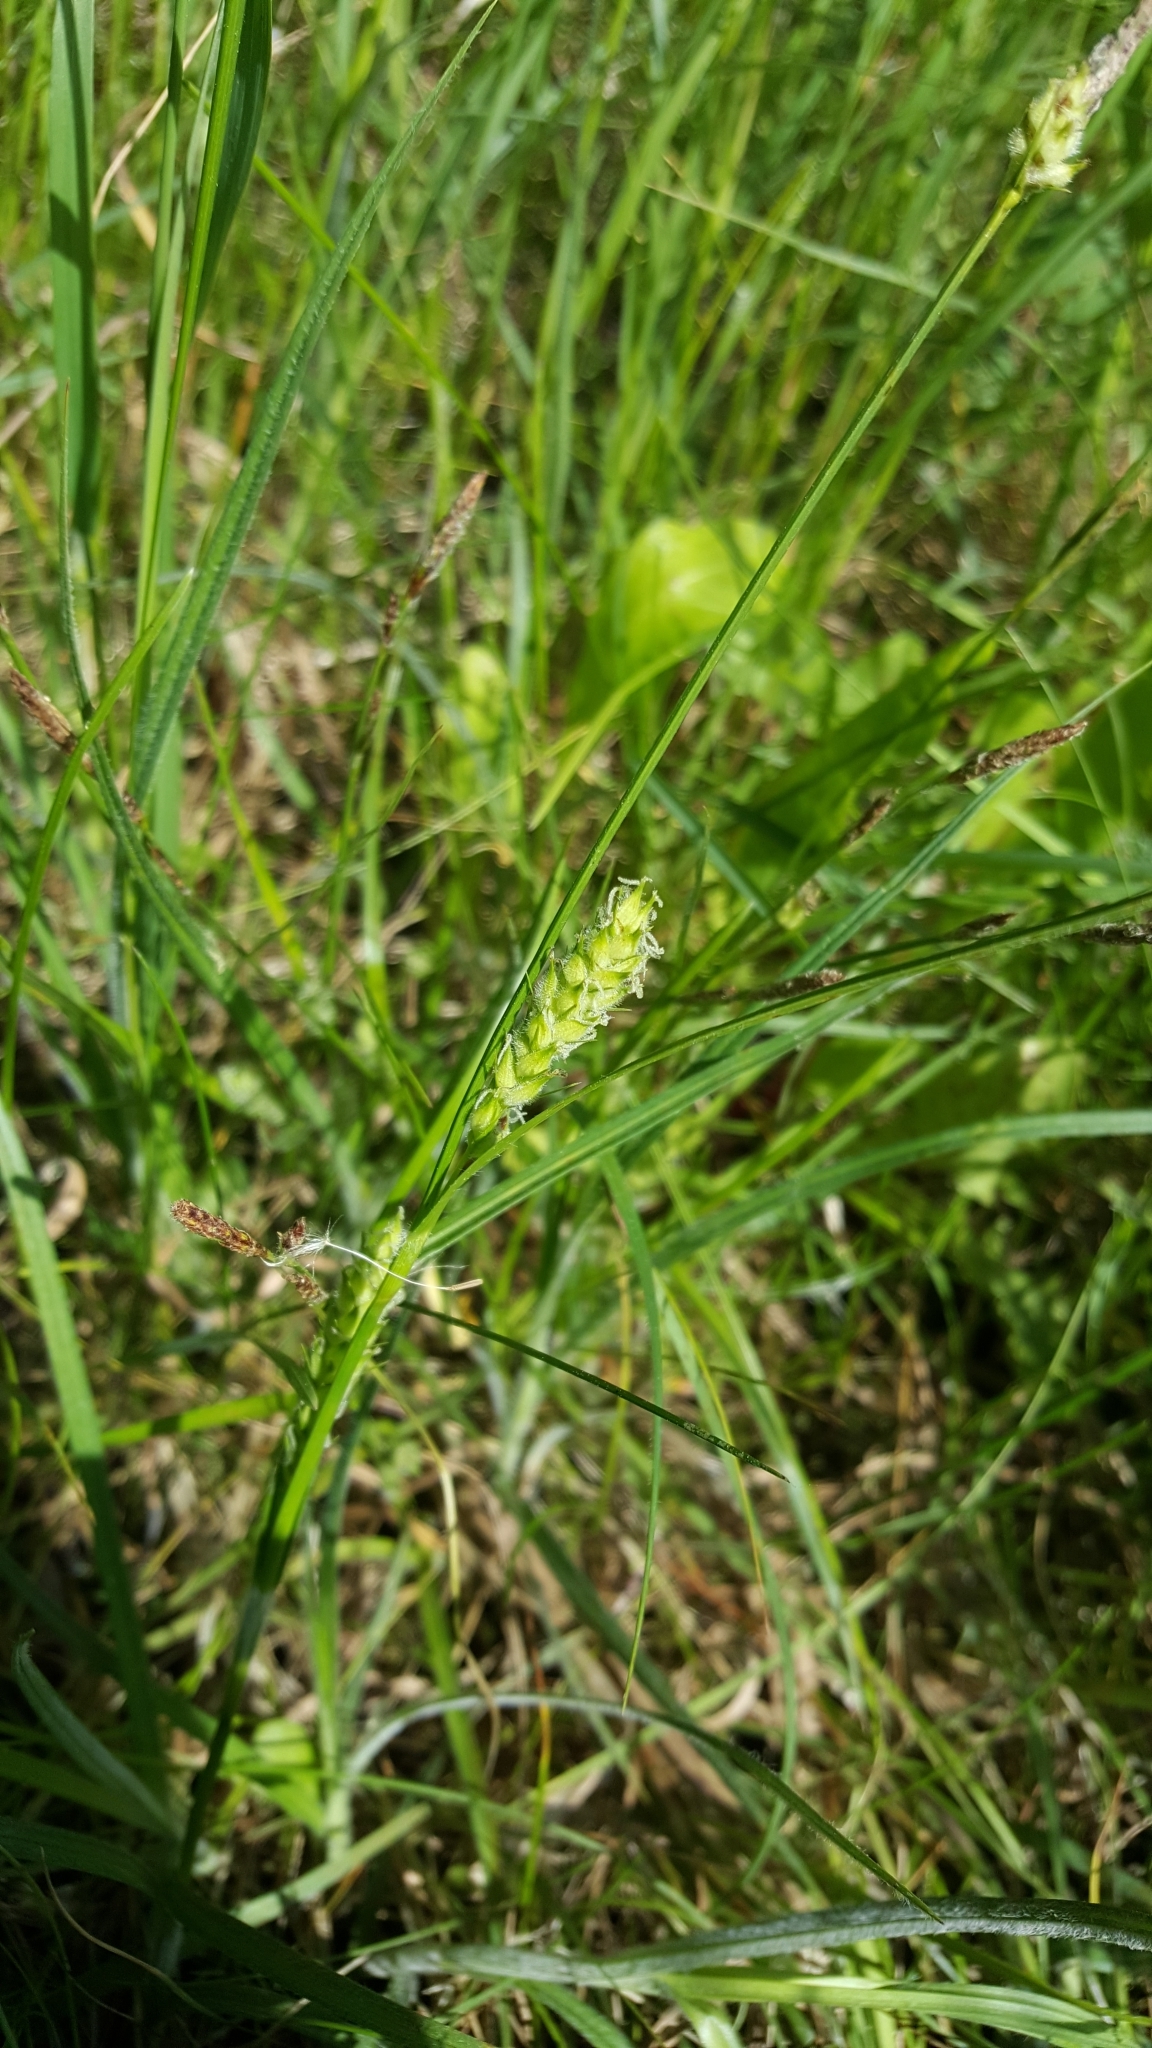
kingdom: Plantae
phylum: Tracheophyta
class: Liliopsida
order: Poales
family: Cyperaceae
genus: Carex
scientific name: Carex hirta
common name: Hairy sedge
